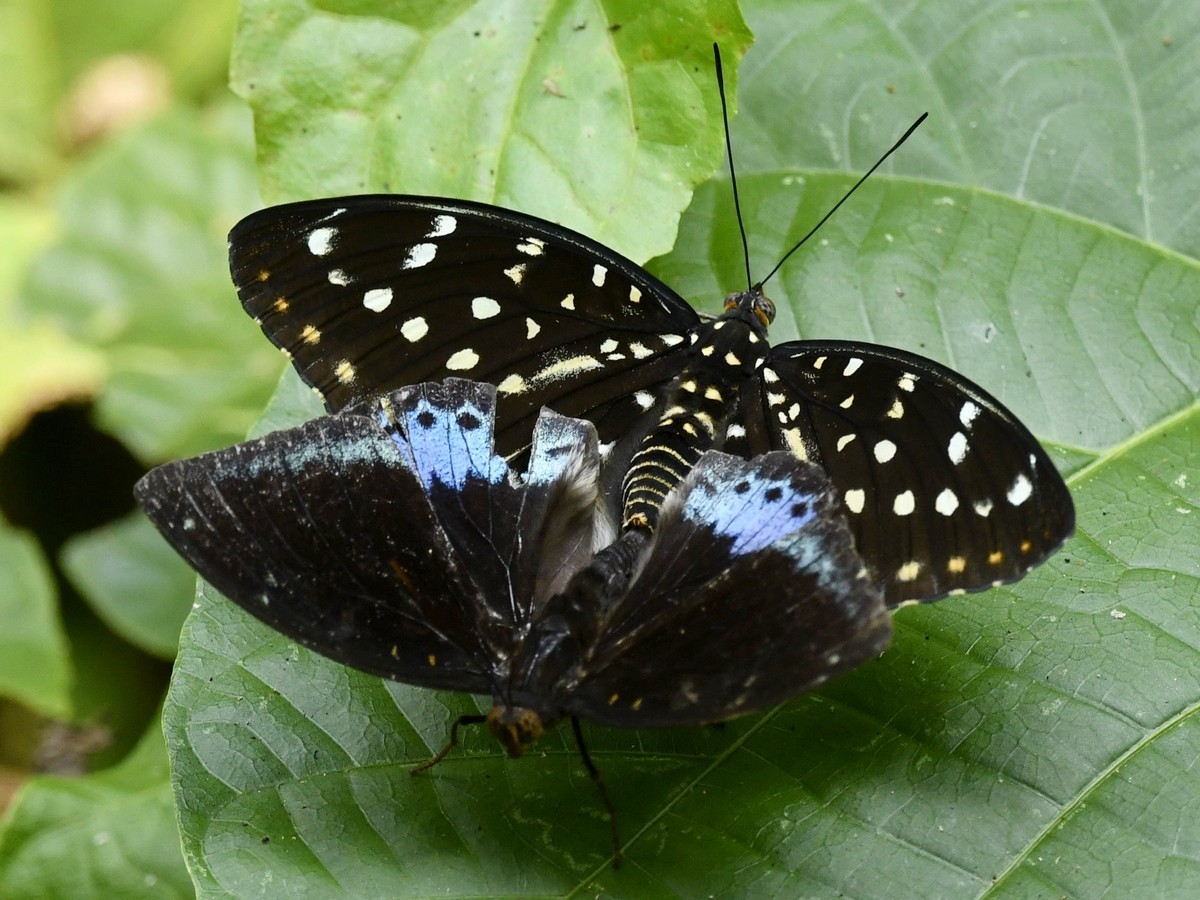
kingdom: Animalia
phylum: Arthropoda
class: Insecta
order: Lepidoptera
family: Nymphalidae
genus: Lexias
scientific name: Lexias dirtea
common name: Black-tipped archduke
